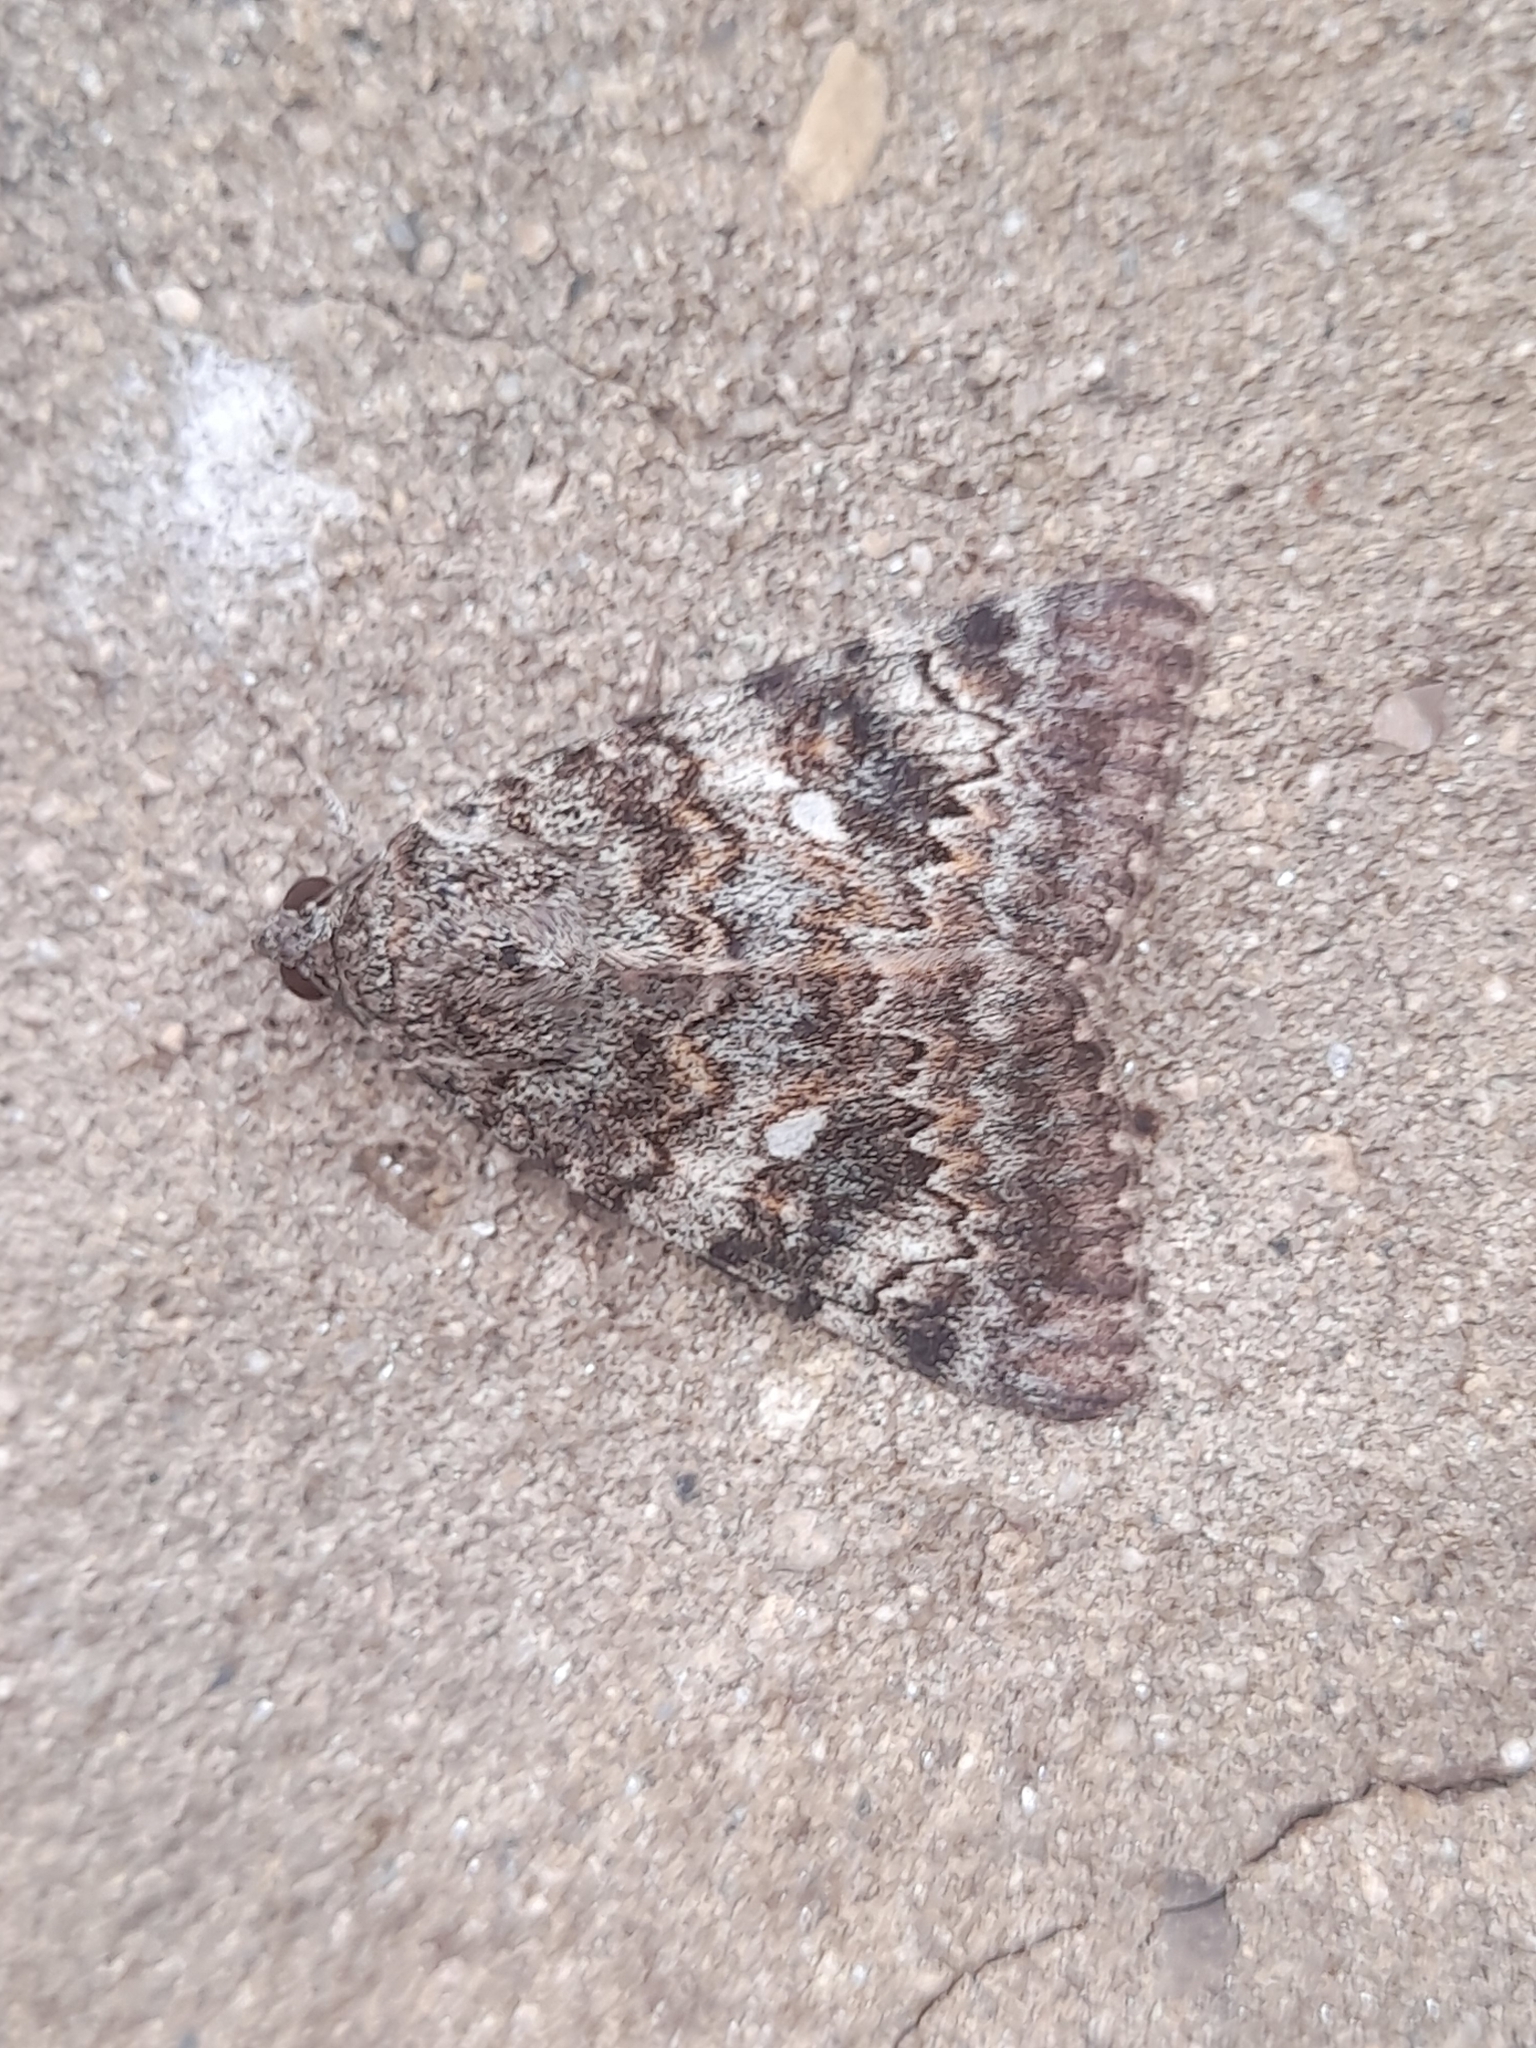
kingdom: Animalia
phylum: Arthropoda
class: Insecta
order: Lepidoptera
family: Erebidae
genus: Catocala
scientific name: Catocala nymphaea
